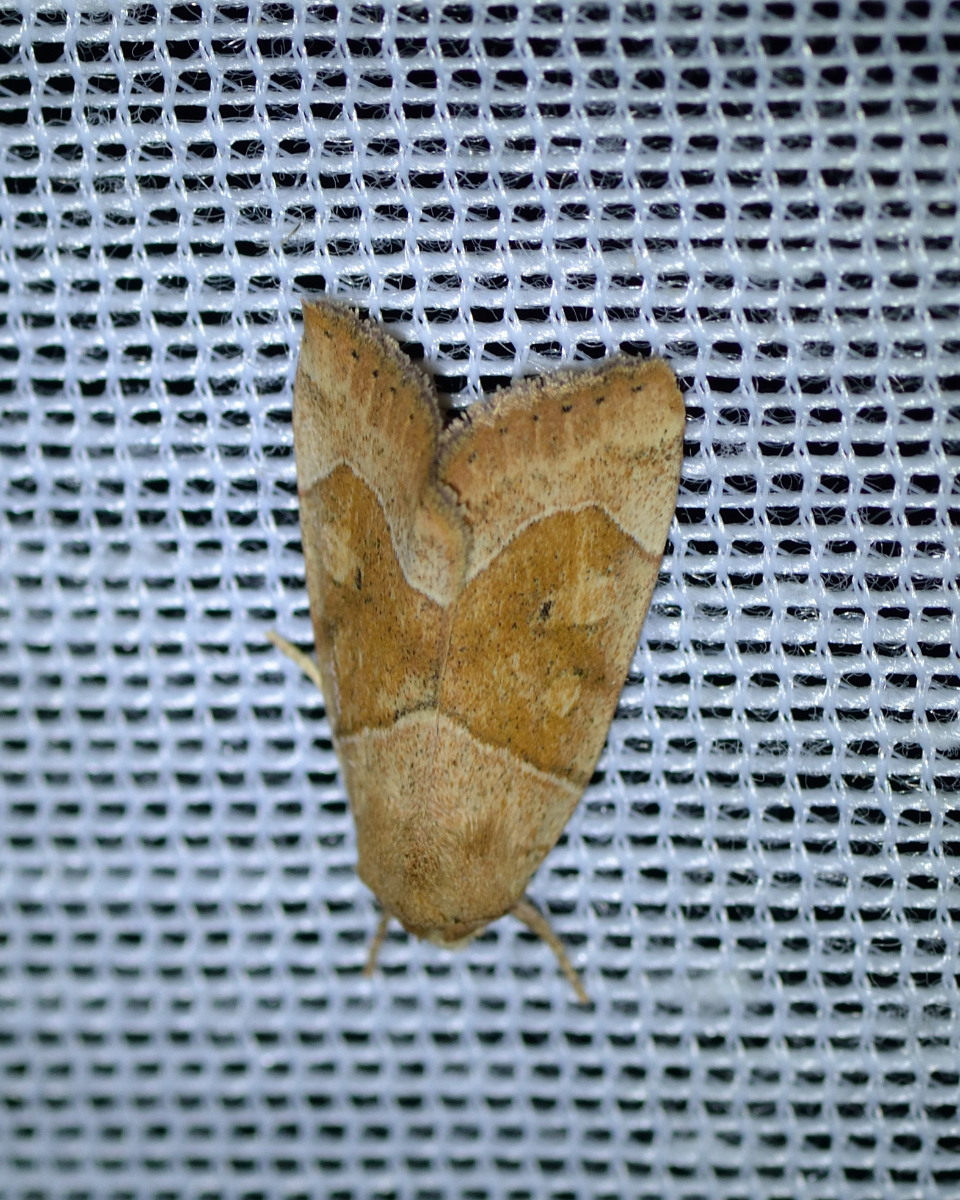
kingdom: Animalia
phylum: Arthropoda
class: Insecta
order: Lepidoptera
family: Noctuidae
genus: Cosmia
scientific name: Cosmia trapezina
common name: Dun-bar
